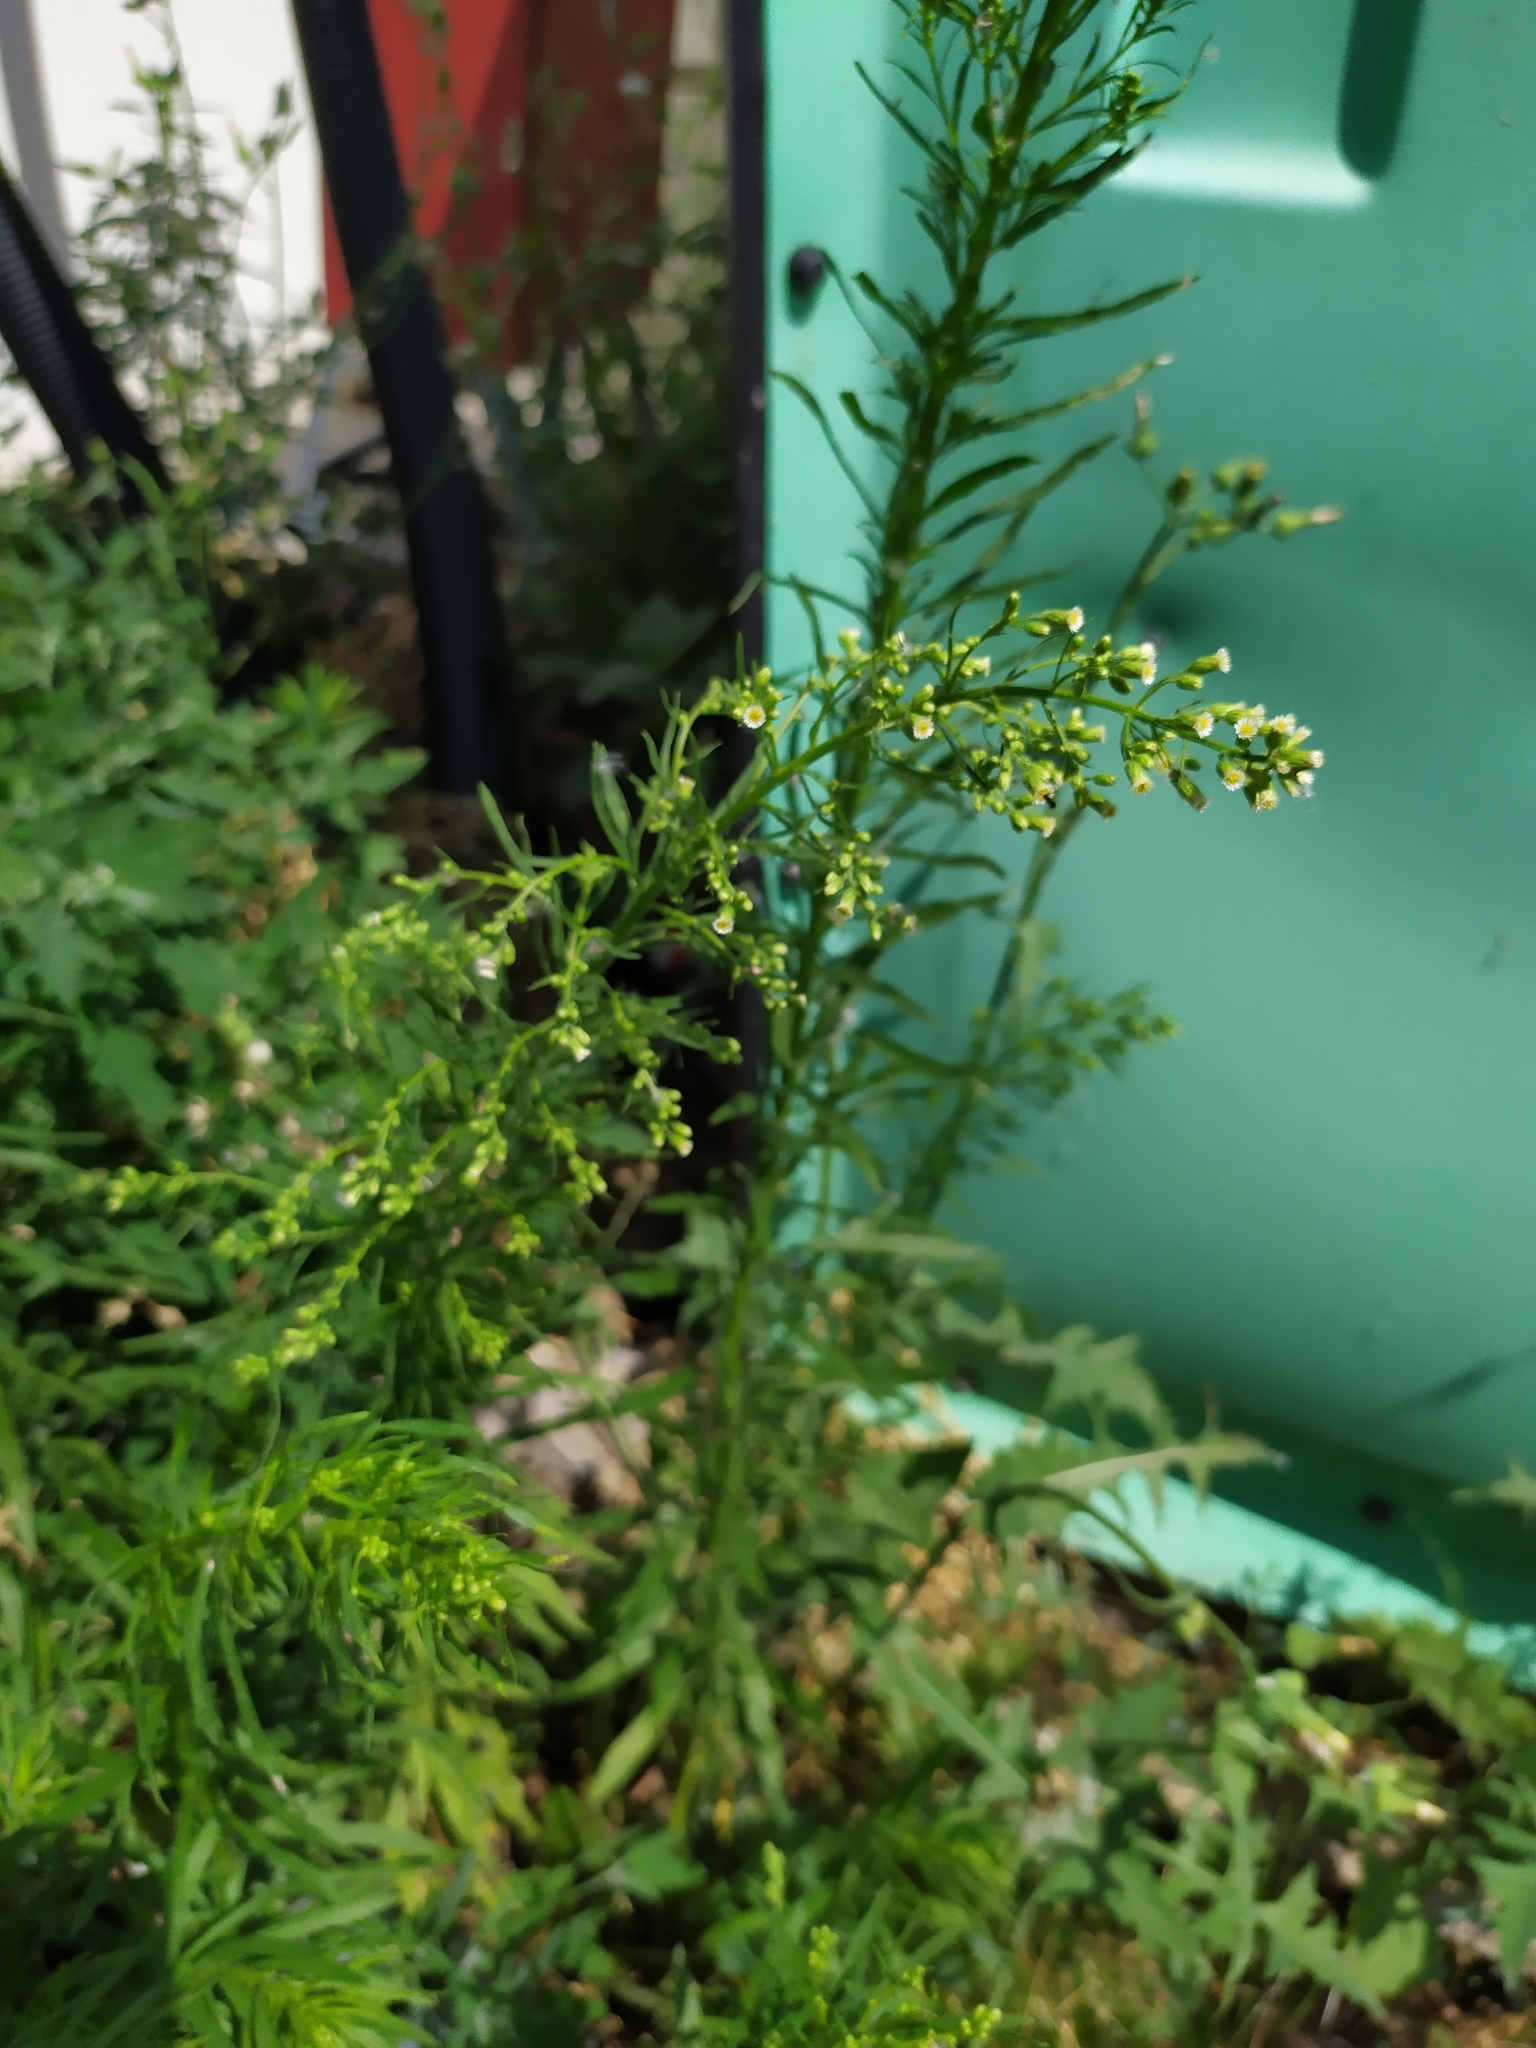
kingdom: Plantae
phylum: Tracheophyta
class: Magnoliopsida
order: Asterales
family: Asteraceae
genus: Erigeron
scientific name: Erigeron canadensis
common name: Canadian fleabane
